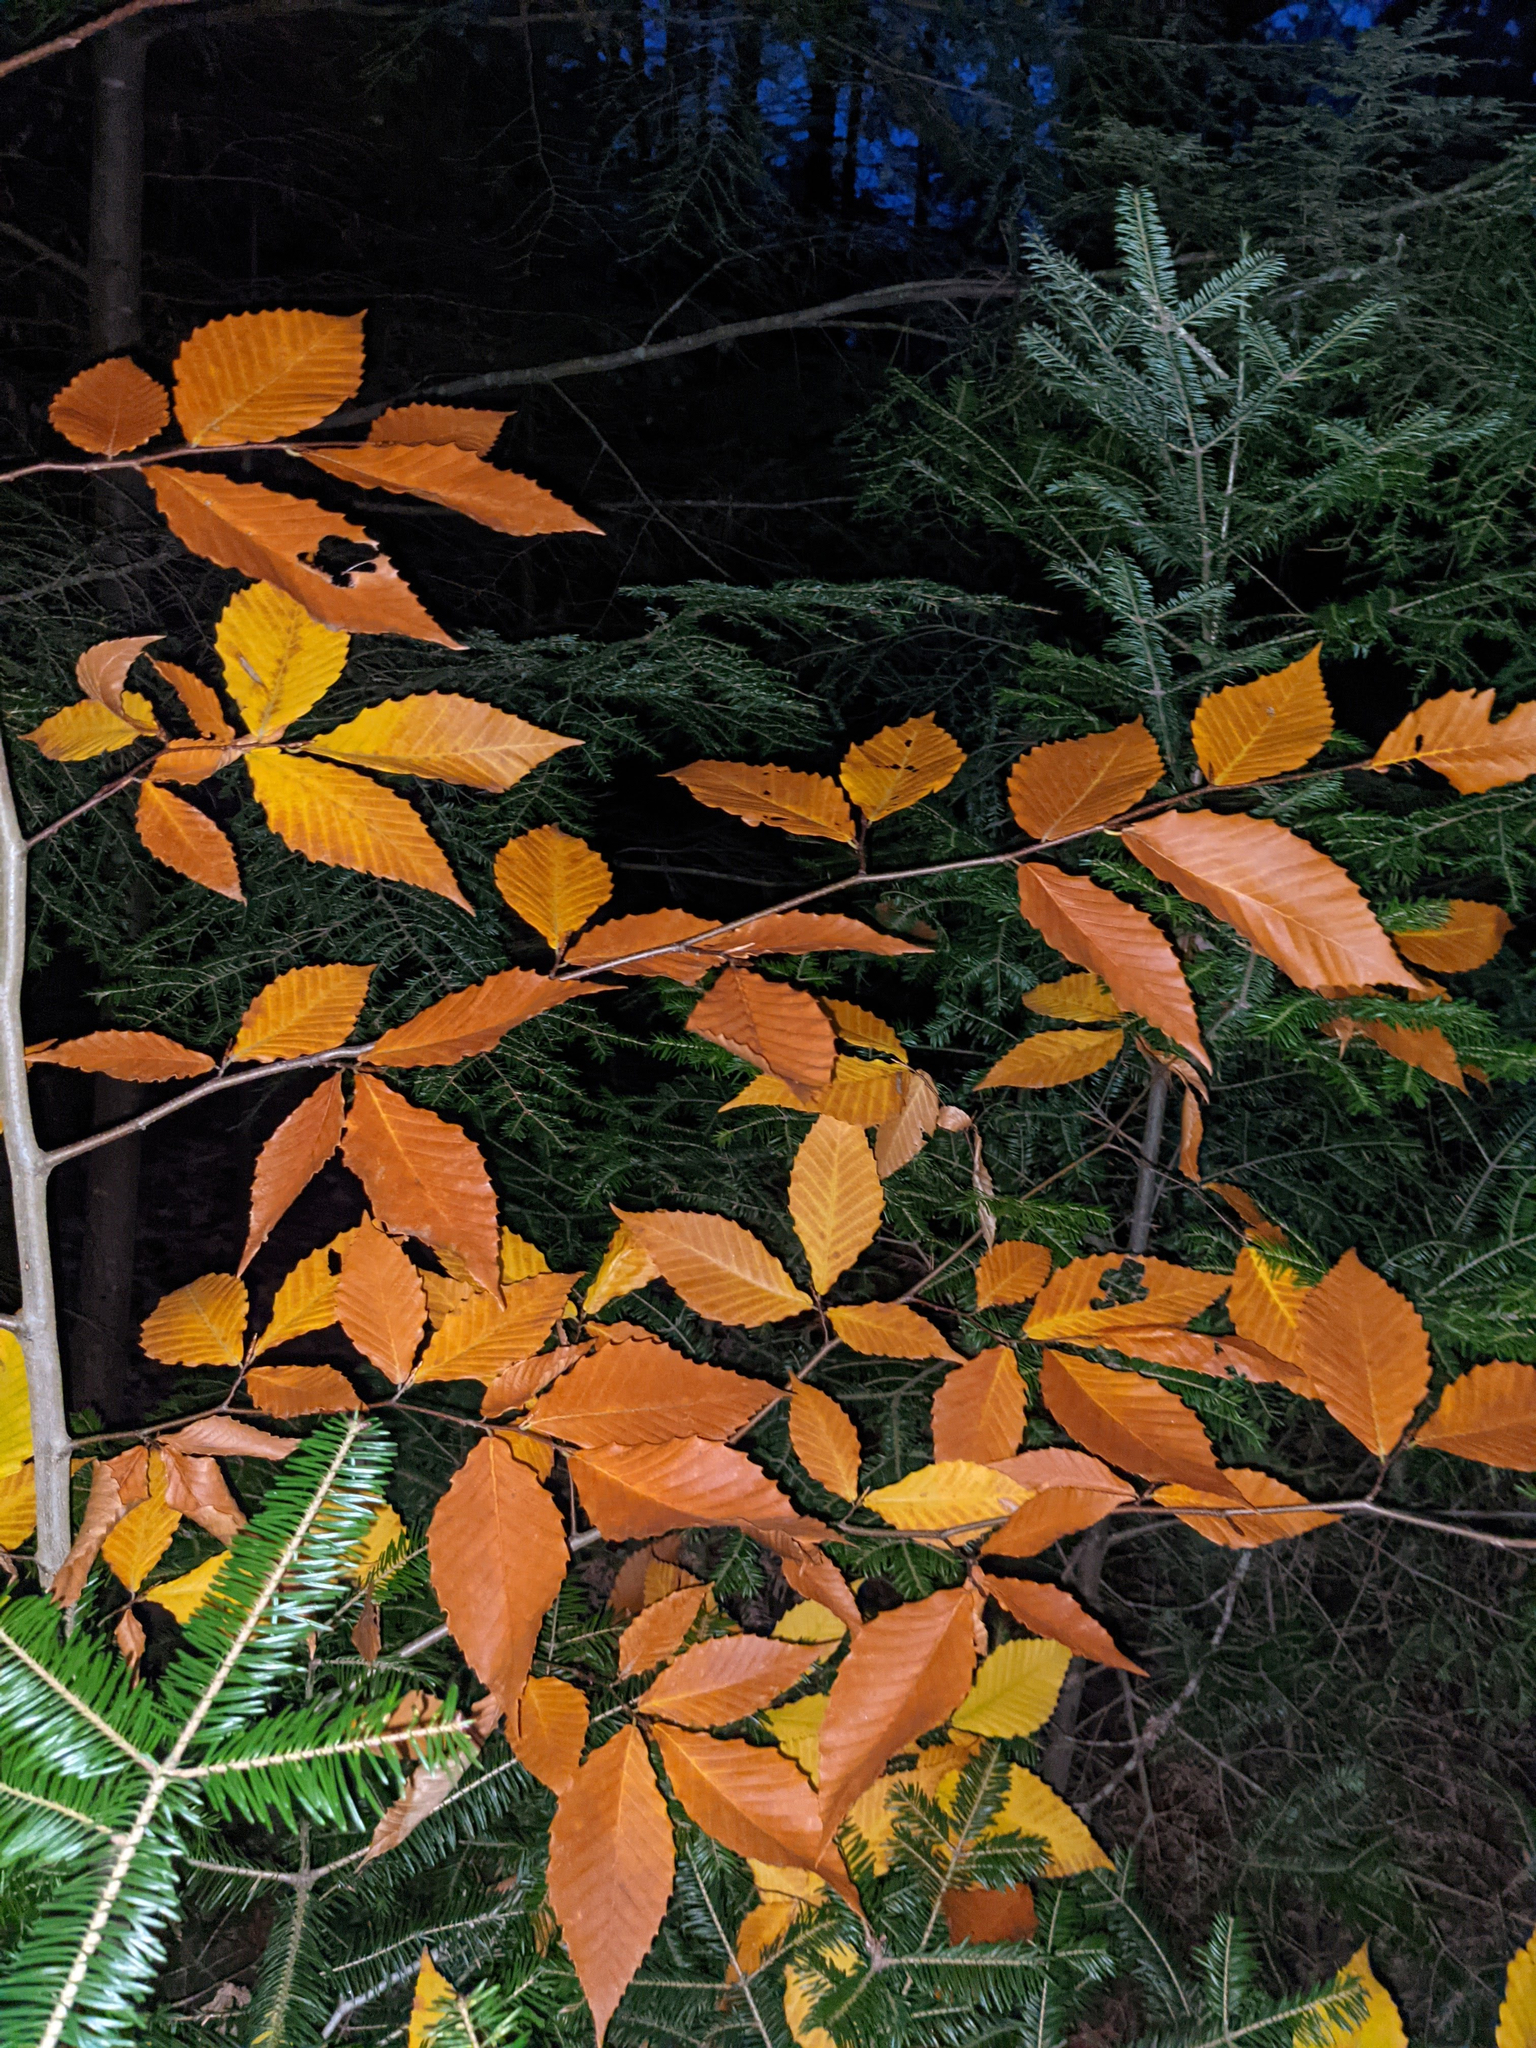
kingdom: Plantae
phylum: Tracheophyta
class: Magnoliopsida
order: Fagales
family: Fagaceae
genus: Fagus
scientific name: Fagus grandifolia
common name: American beech
